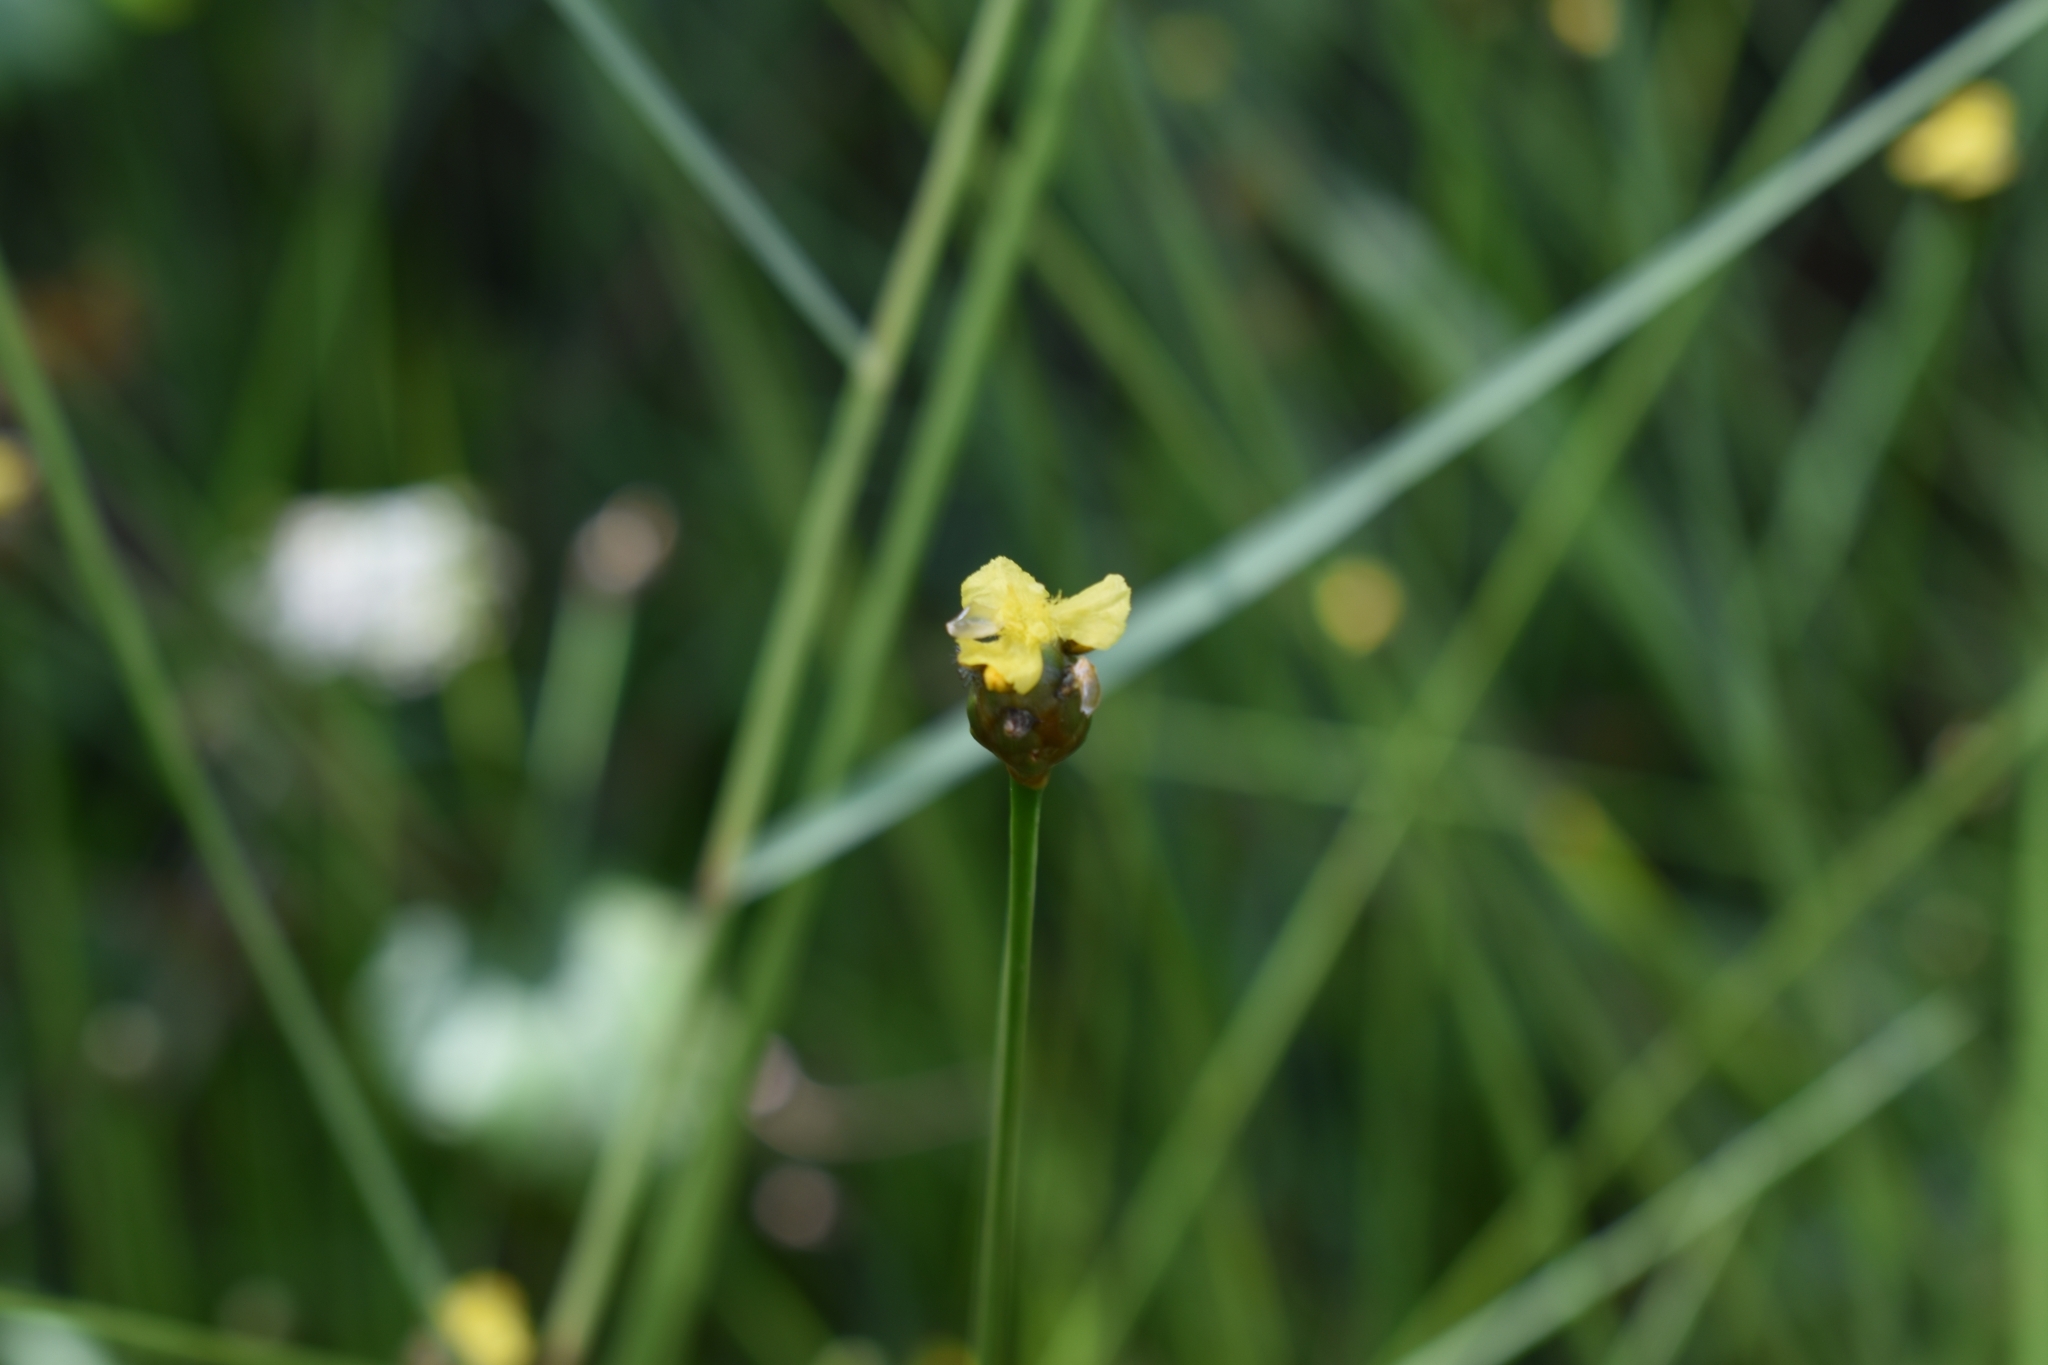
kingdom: Plantae
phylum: Tracheophyta
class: Liliopsida
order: Poales
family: Xyridaceae
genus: Xyris
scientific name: Xyris difformis
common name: Bog yellow-eyed-grass
